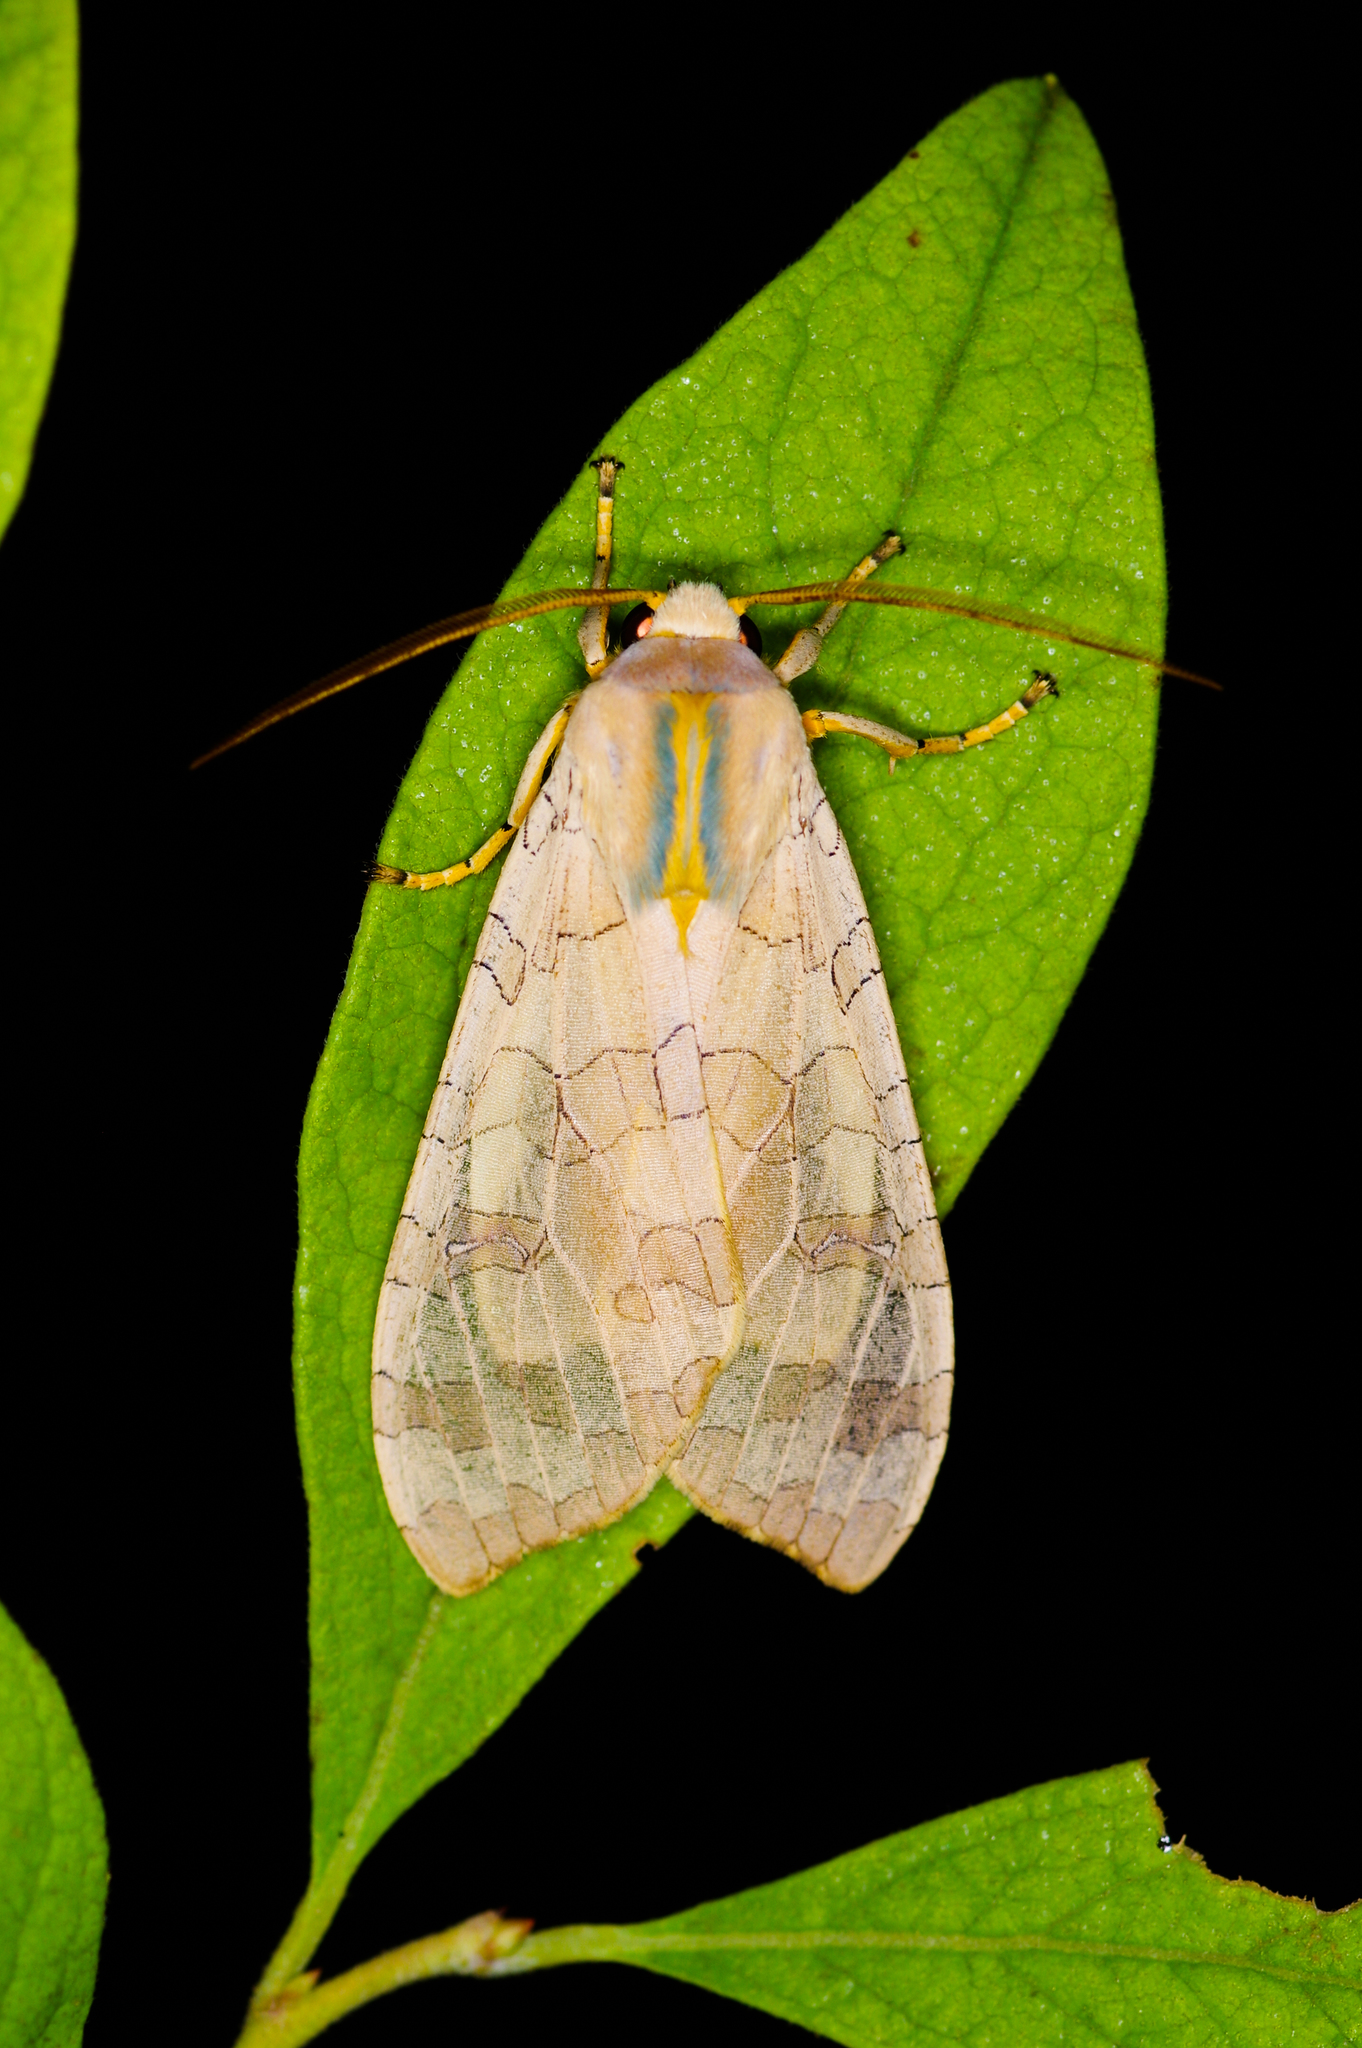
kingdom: Animalia
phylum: Arthropoda
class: Insecta
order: Lepidoptera
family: Erebidae
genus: Halysidota
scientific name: Halysidota
